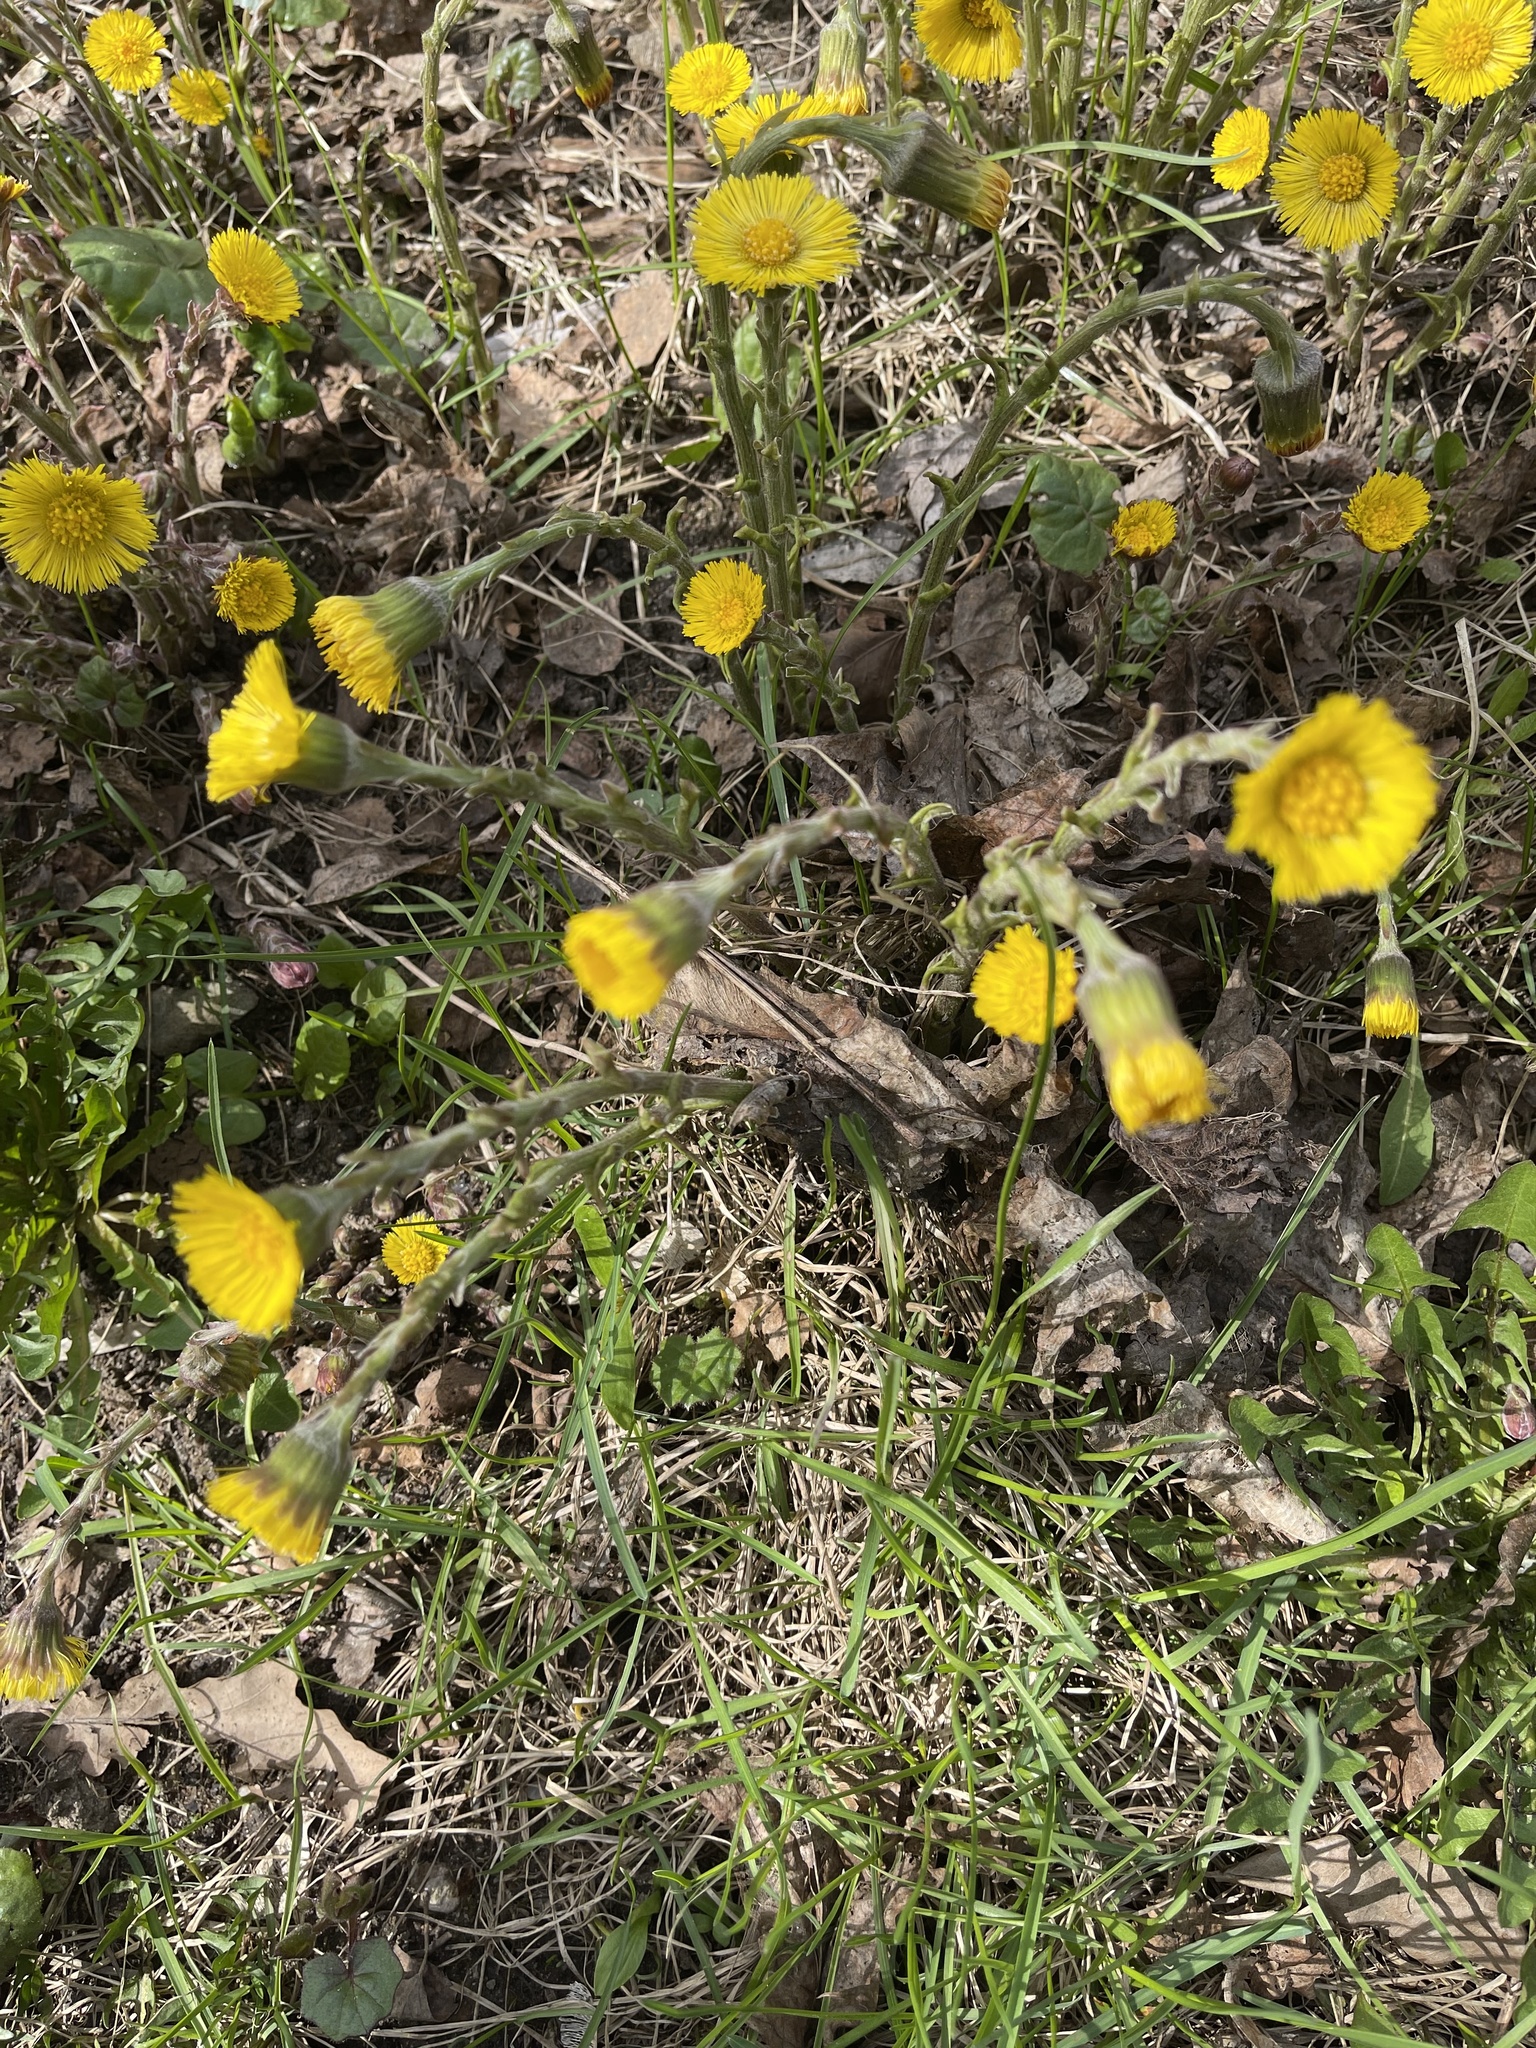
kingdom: Plantae
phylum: Tracheophyta
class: Magnoliopsida
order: Asterales
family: Asteraceae
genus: Tussilago
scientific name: Tussilago farfara
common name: Coltsfoot
